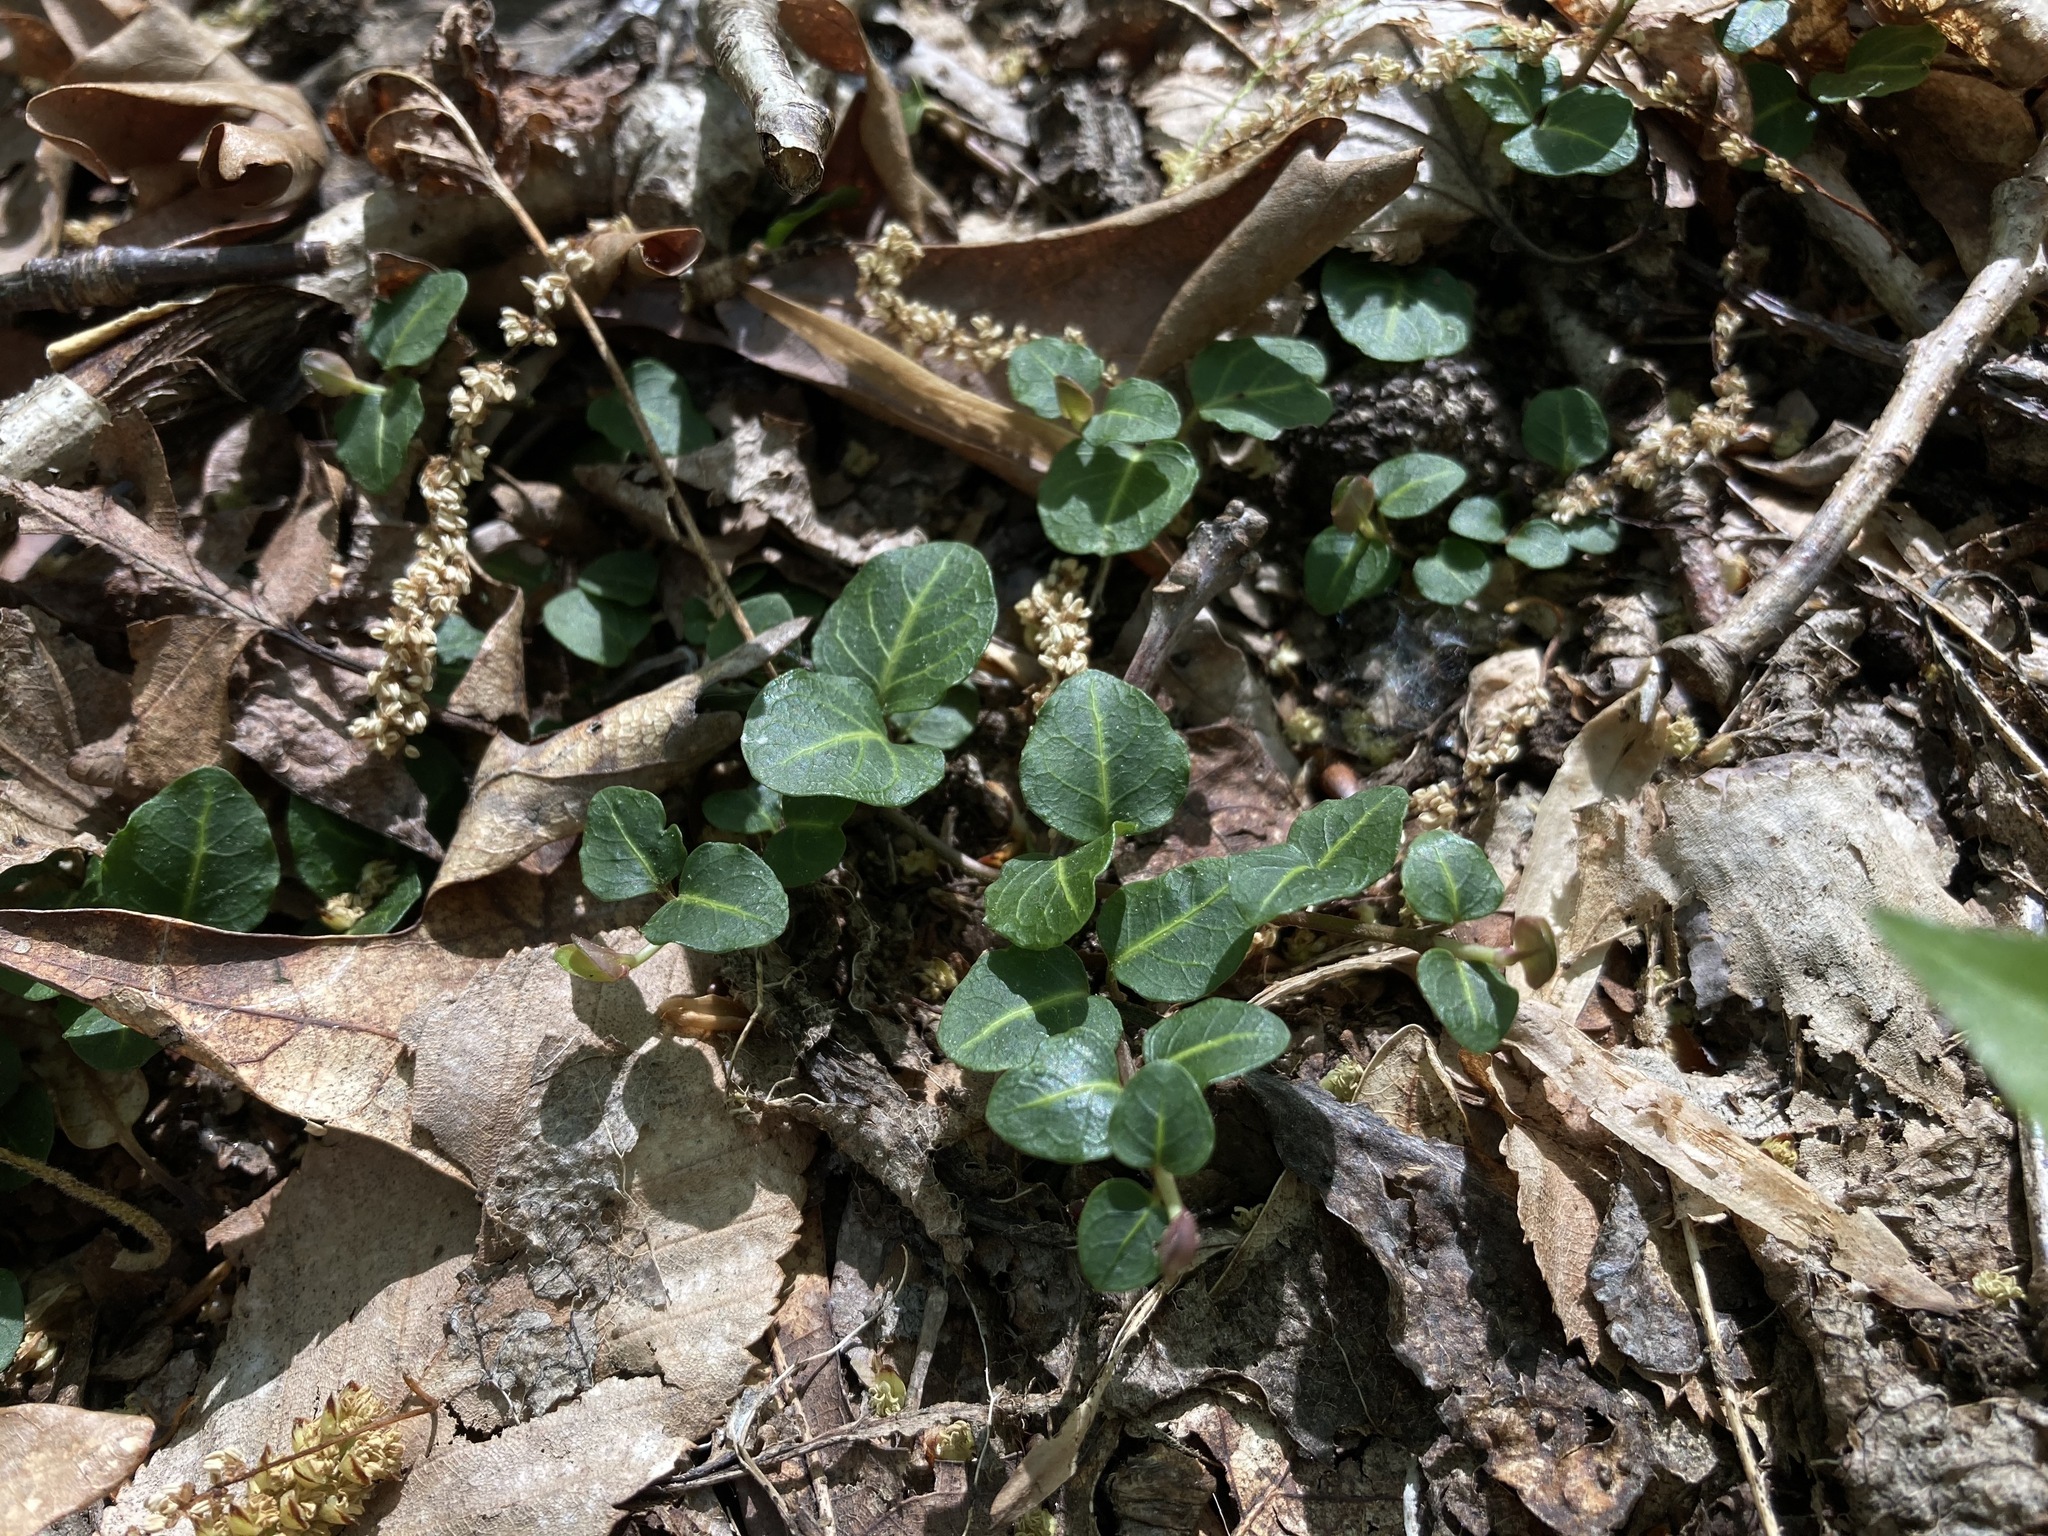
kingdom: Plantae
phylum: Tracheophyta
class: Magnoliopsida
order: Gentianales
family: Rubiaceae
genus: Mitchella
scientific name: Mitchella repens
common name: Partridge-berry
